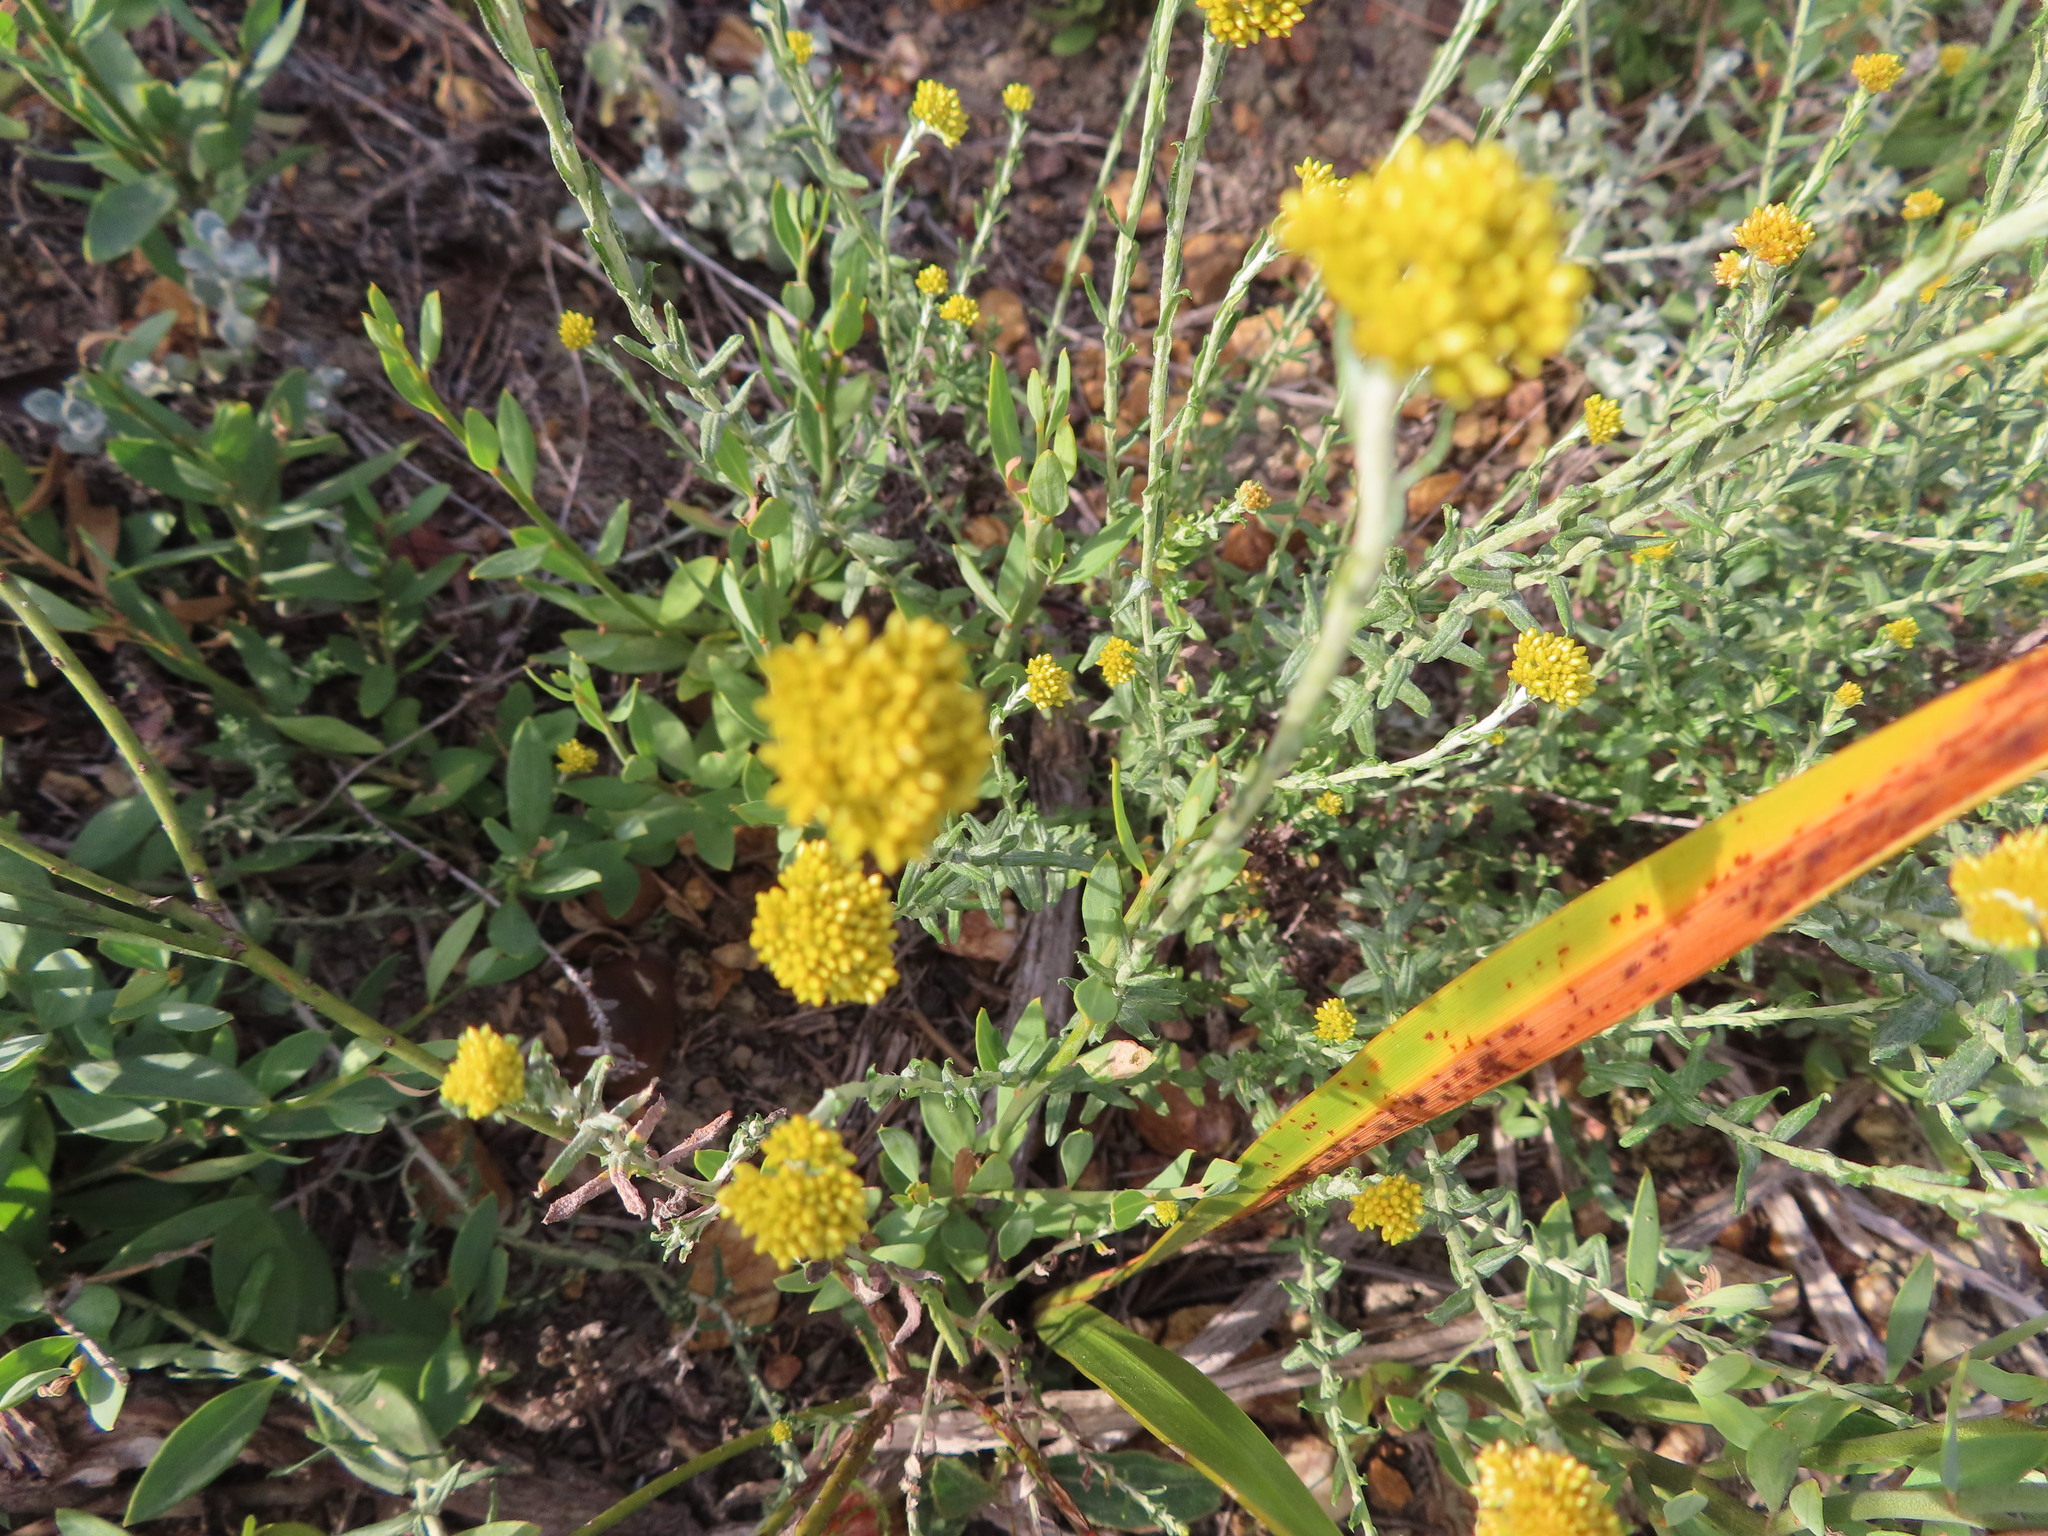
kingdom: Plantae
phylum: Tracheophyta
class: Magnoliopsida
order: Asterales
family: Asteraceae
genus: Helichrysum
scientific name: Helichrysum cymosum
